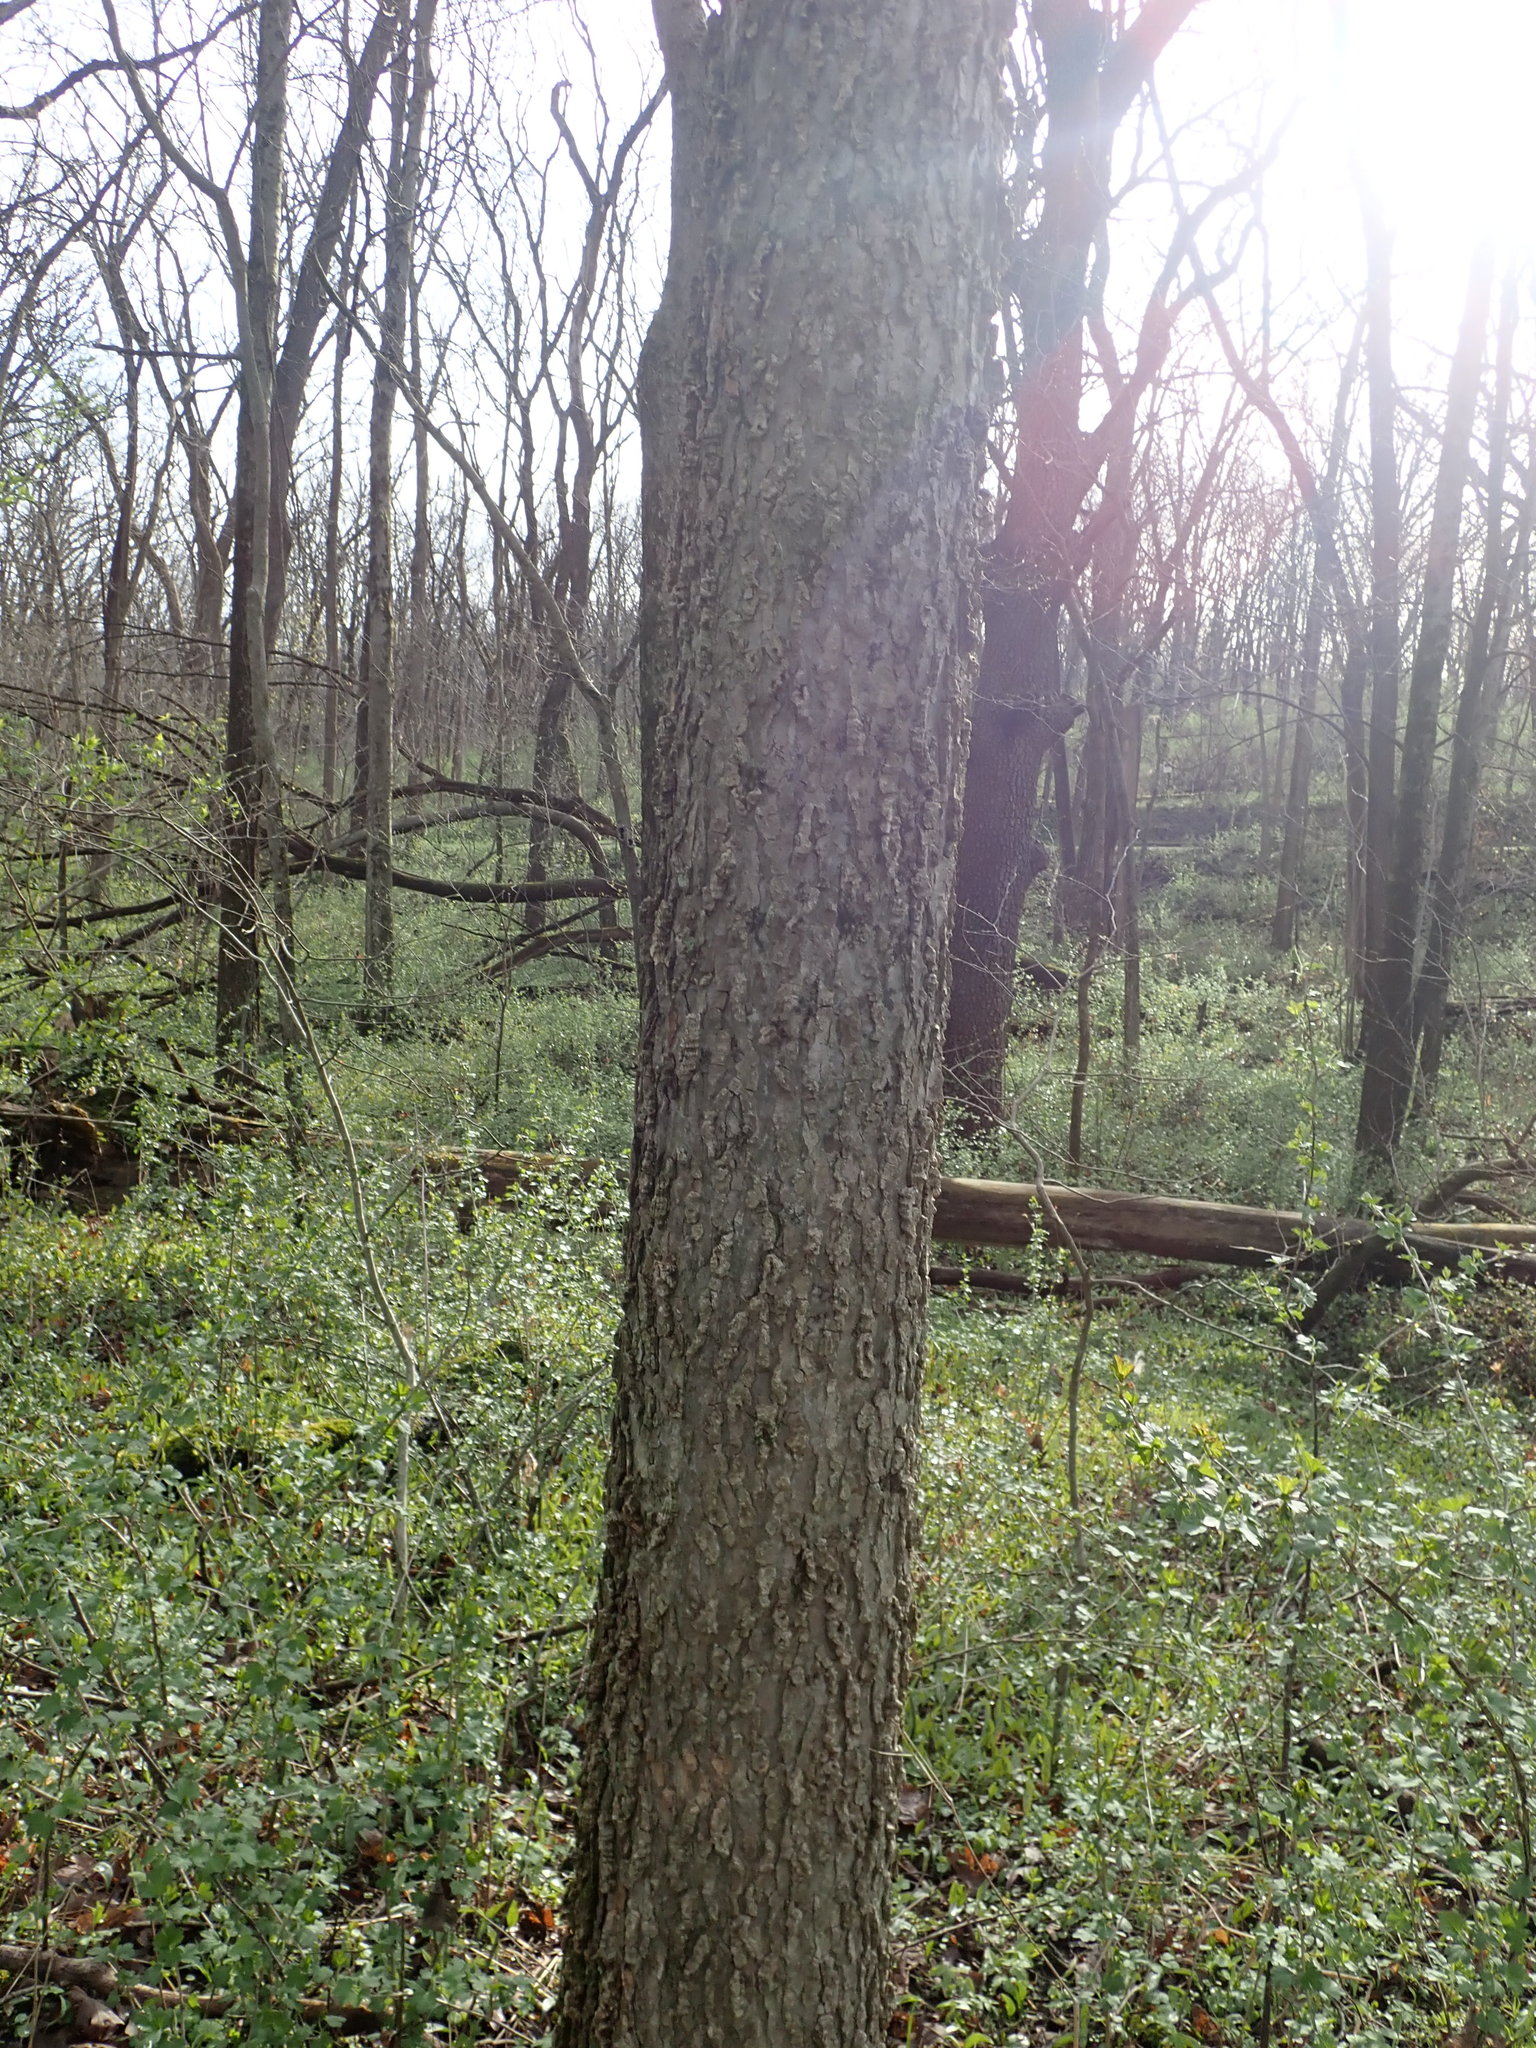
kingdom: Plantae
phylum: Tracheophyta
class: Magnoliopsida
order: Rosales
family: Cannabaceae
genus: Celtis
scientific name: Celtis occidentalis
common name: Common hackberry
